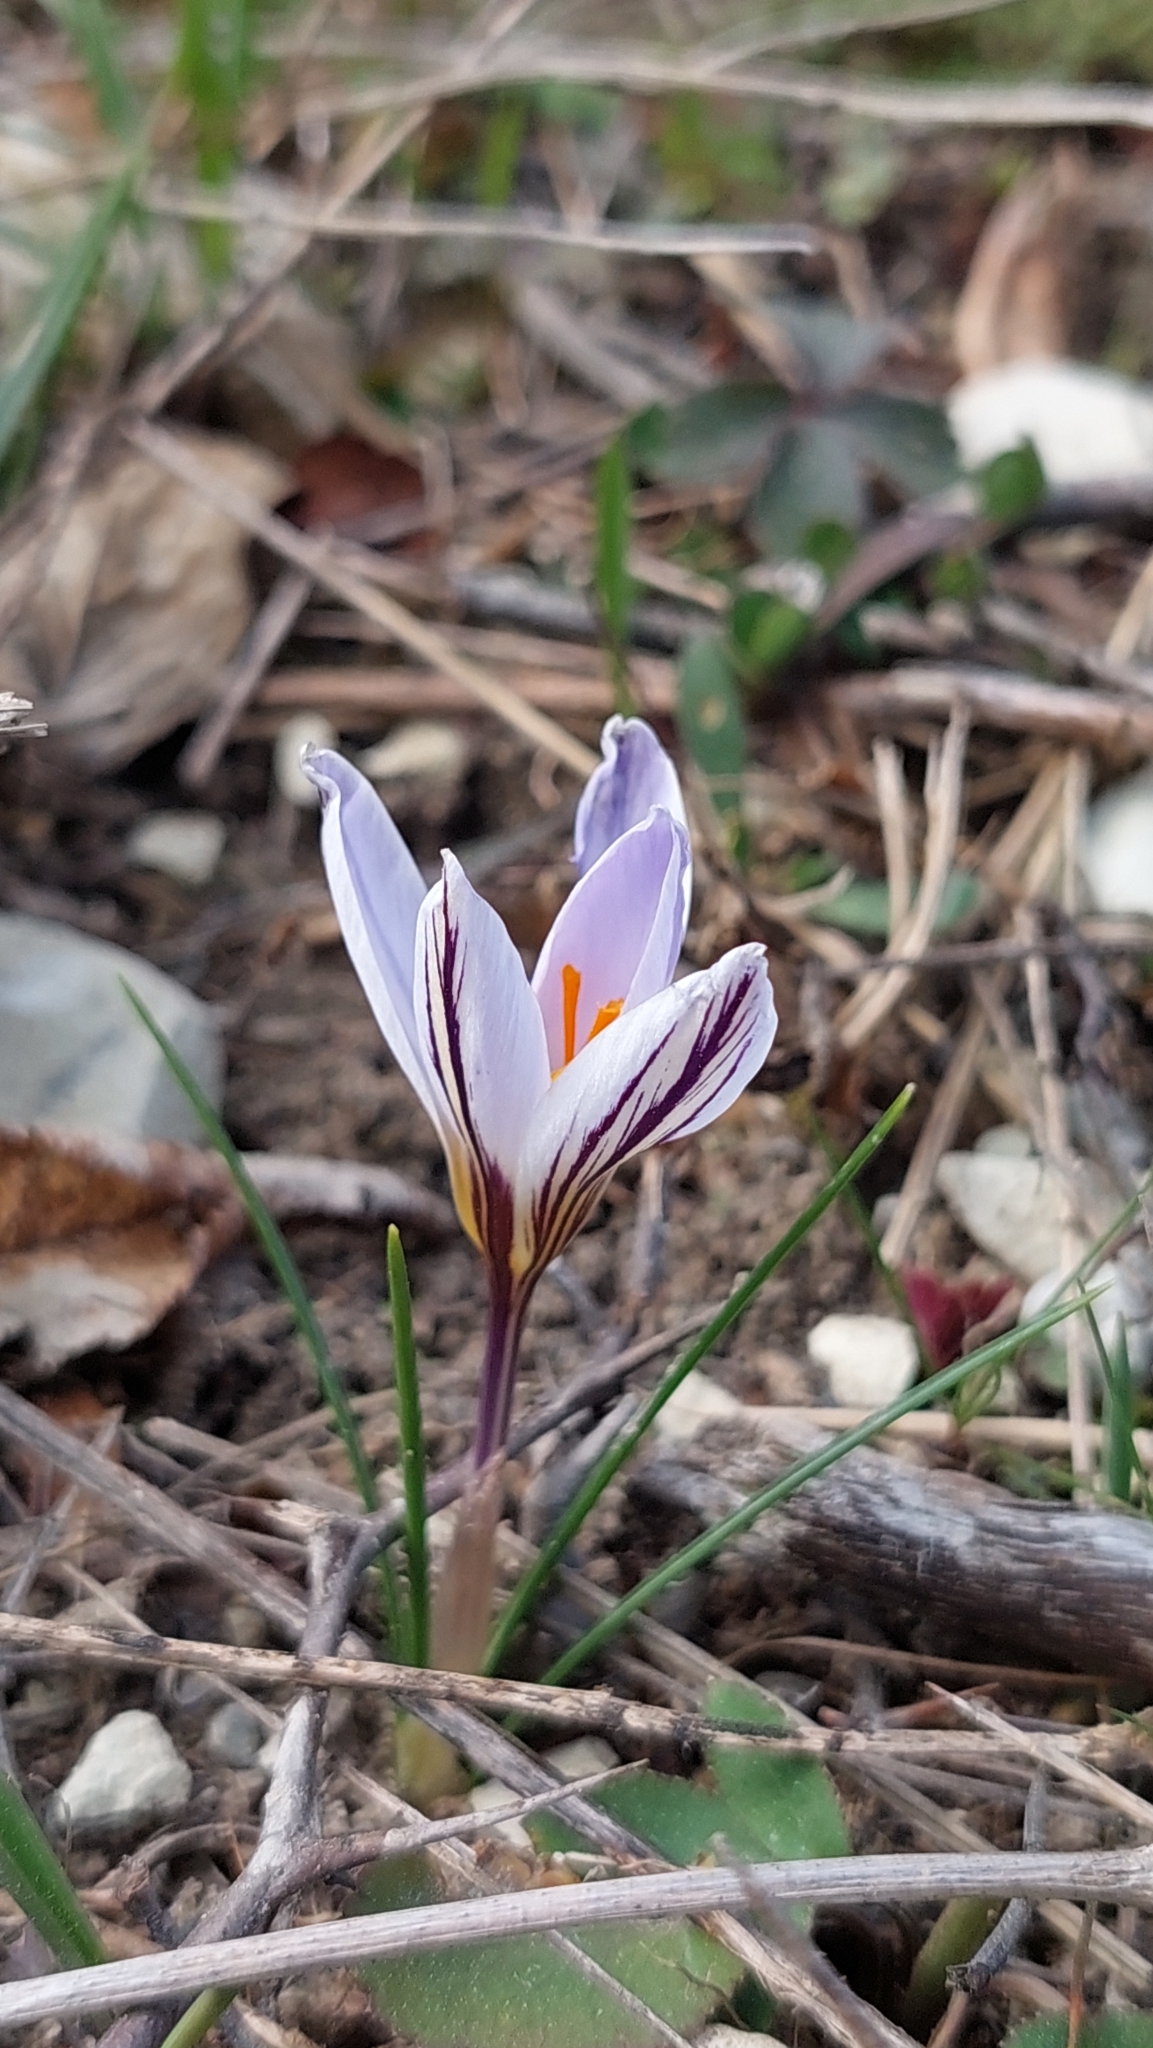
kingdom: Plantae
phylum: Tracheophyta
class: Liliopsida
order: Asparagales
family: Iridaceae
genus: Crocus
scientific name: Crocus reticulatus
